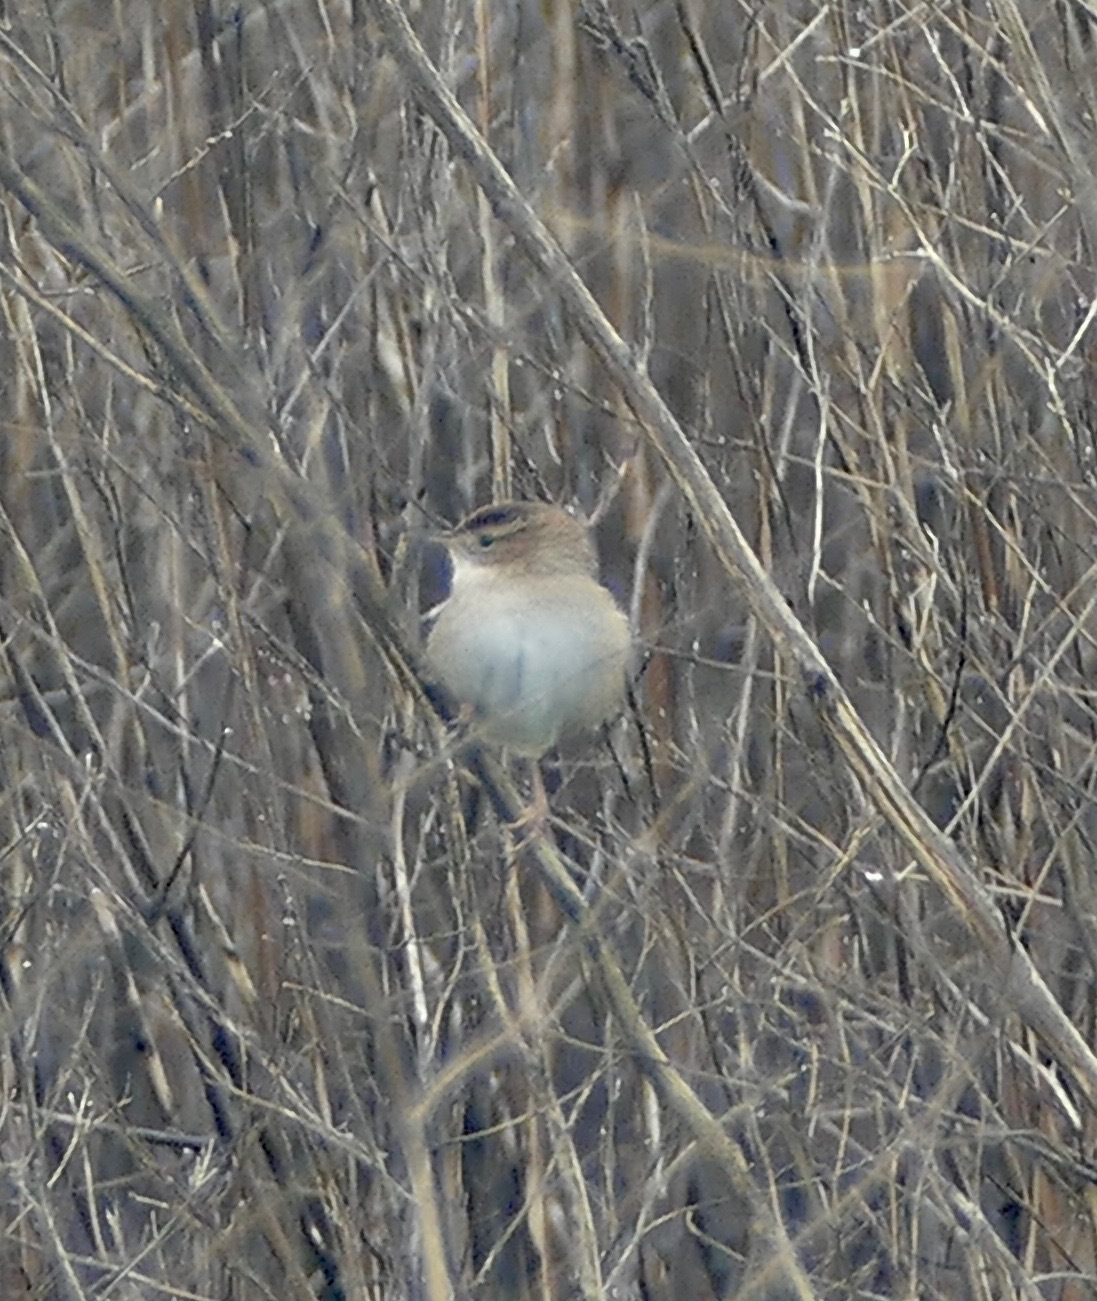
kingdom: Animalia
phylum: Chordata
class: Aves
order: Passeriformes
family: Troglodytidae
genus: Cistothorus
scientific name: Cistothorus palustris
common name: Marsh wren
